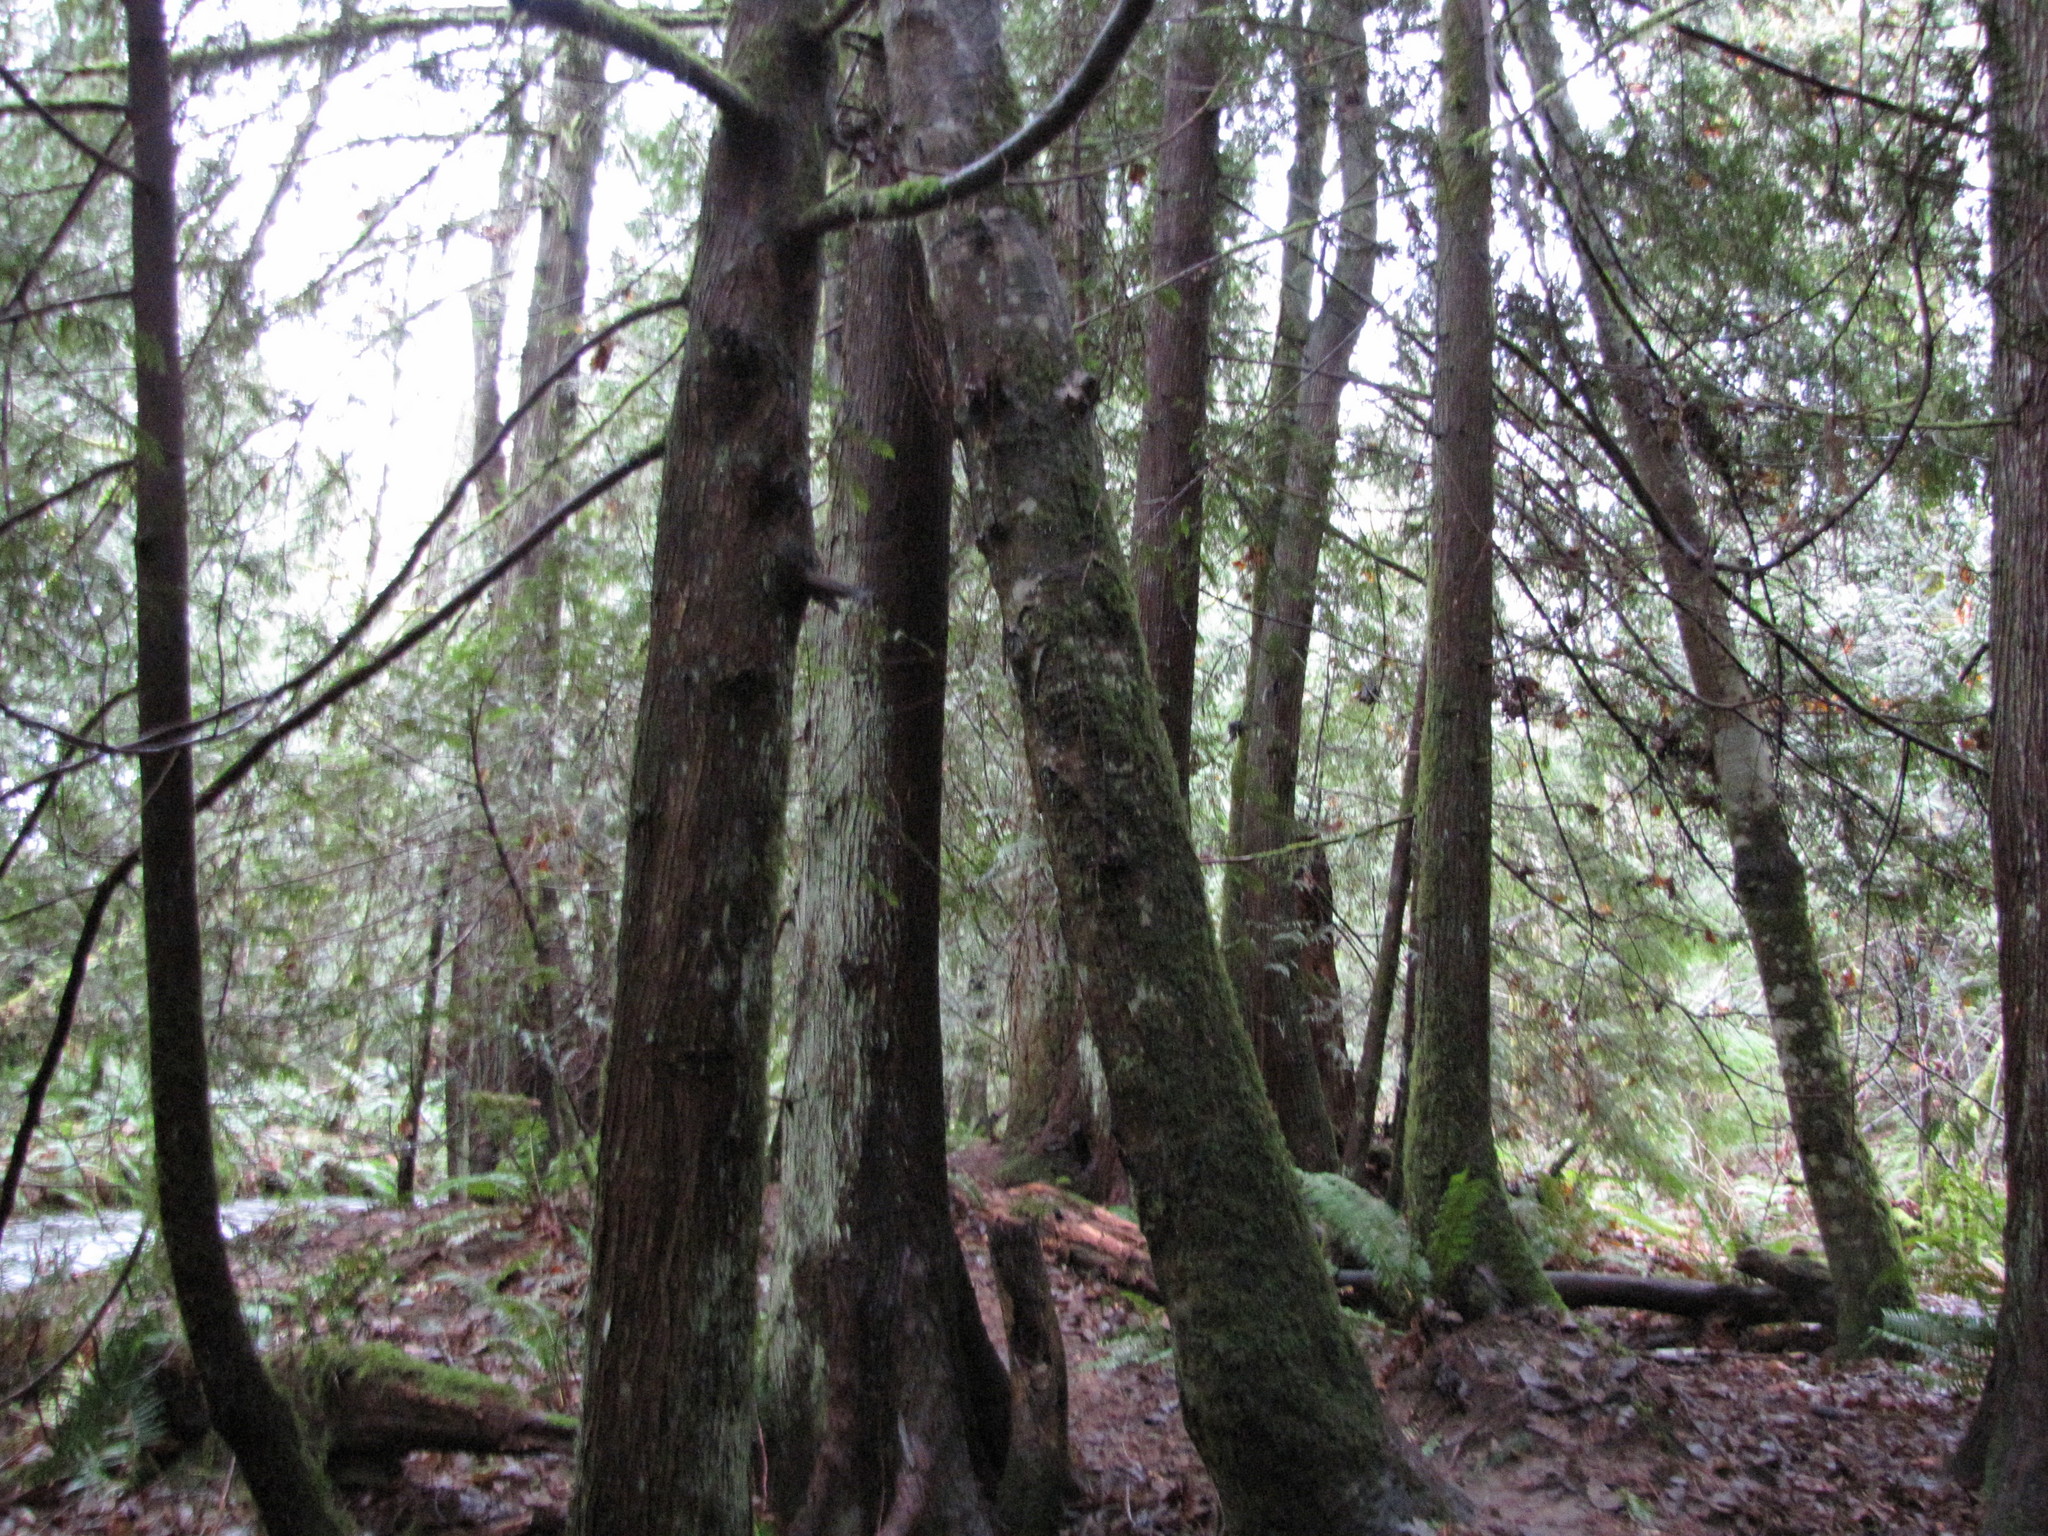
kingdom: Plantae
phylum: Tracheophyta
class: Pinopsida
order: Pinales
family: Cupressaceae
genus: Thuja
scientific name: Thuja plicata
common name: Western red-cedar
